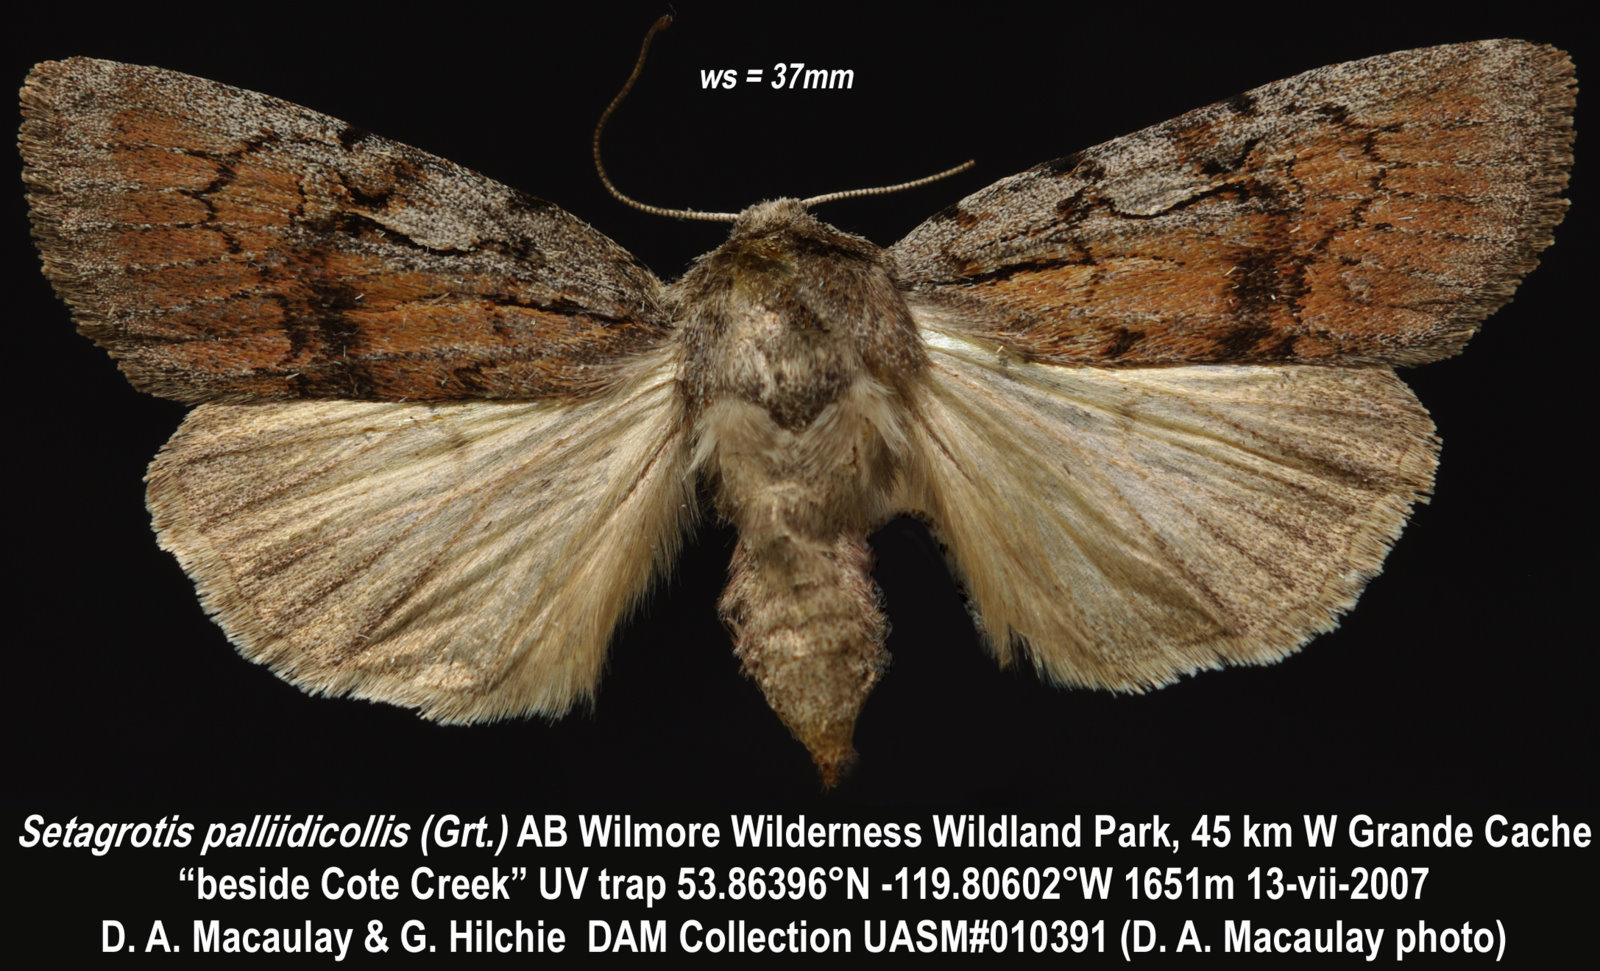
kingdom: Animalia
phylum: Arthropoda
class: Insecta
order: Lepidoptera
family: Noctuidae
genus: Setagrotis
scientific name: Setagrotis pallidicollis
